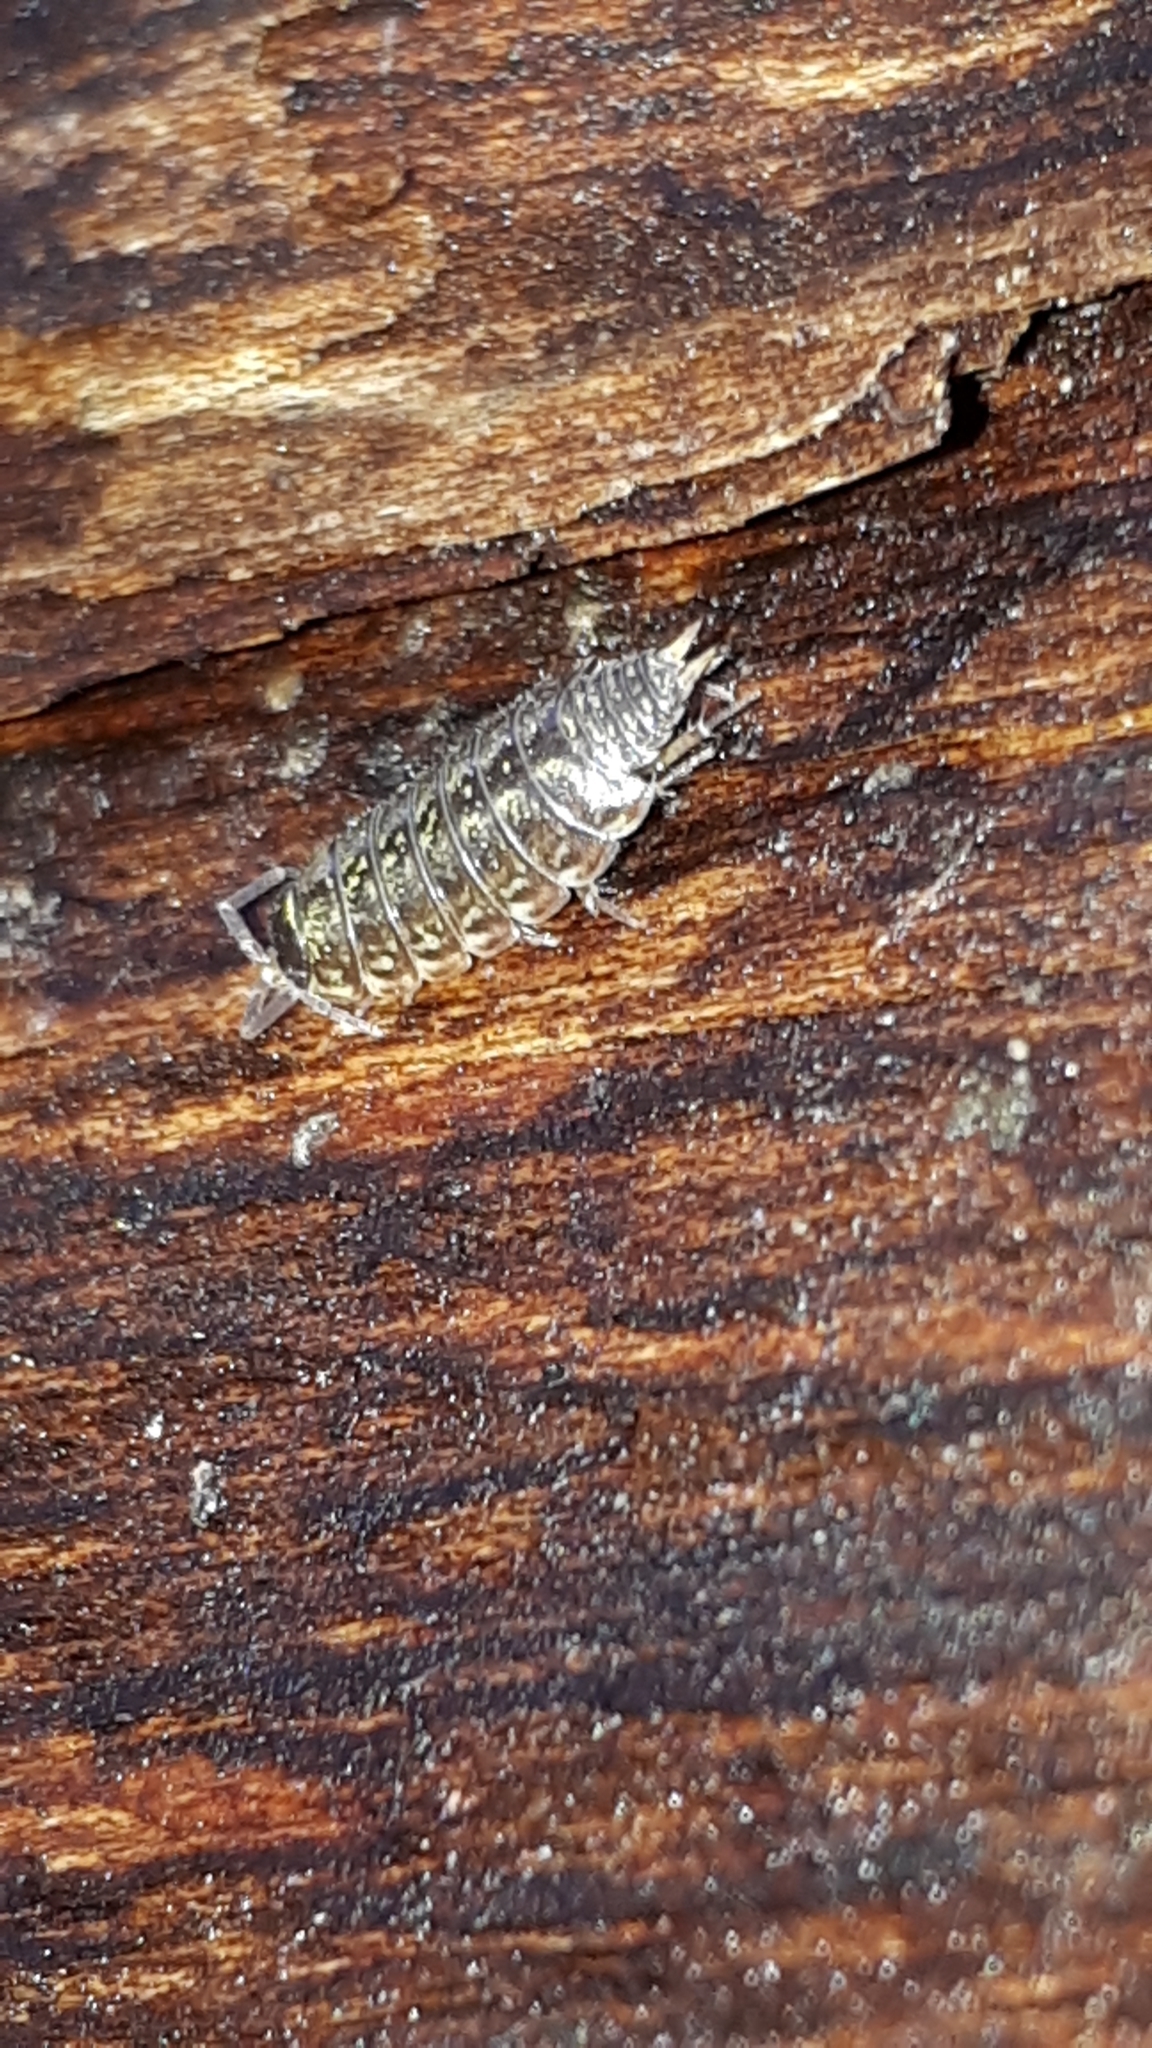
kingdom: Animalia
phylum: Arthropoda
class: Malacostraca
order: Isopoda
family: Philosciidae
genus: Philoscia
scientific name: Philoscia muscorum
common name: Common striped woodlouse
